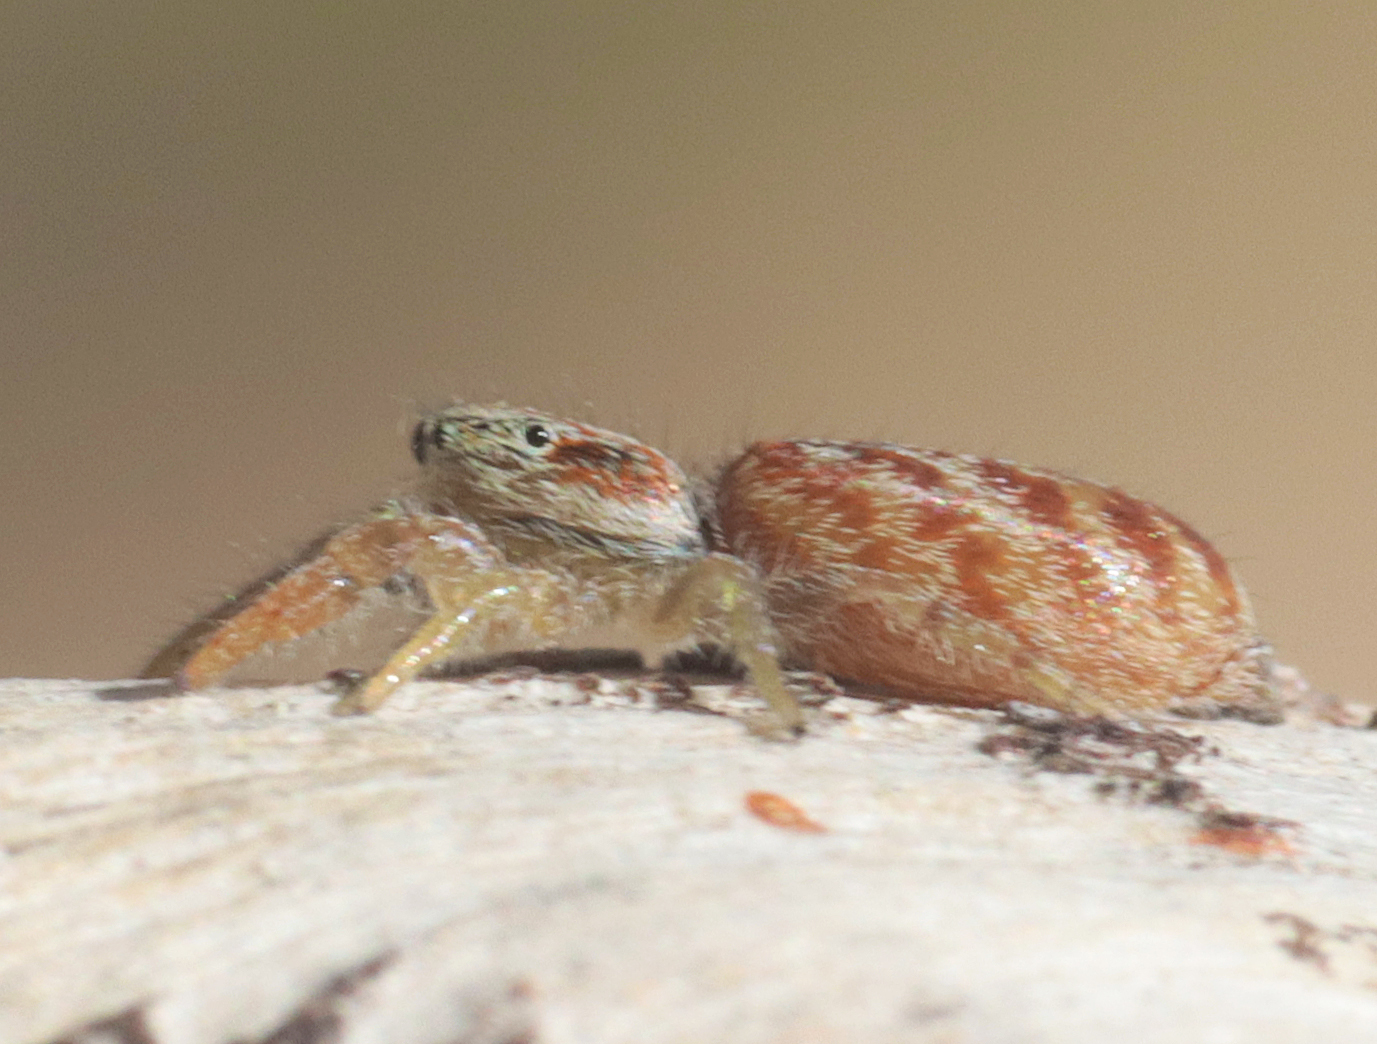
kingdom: Animalia
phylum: Arthropoda
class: Arachnida
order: Araneae
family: Salticidae
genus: Afraflacilla
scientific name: Afraflacilla grayorum
